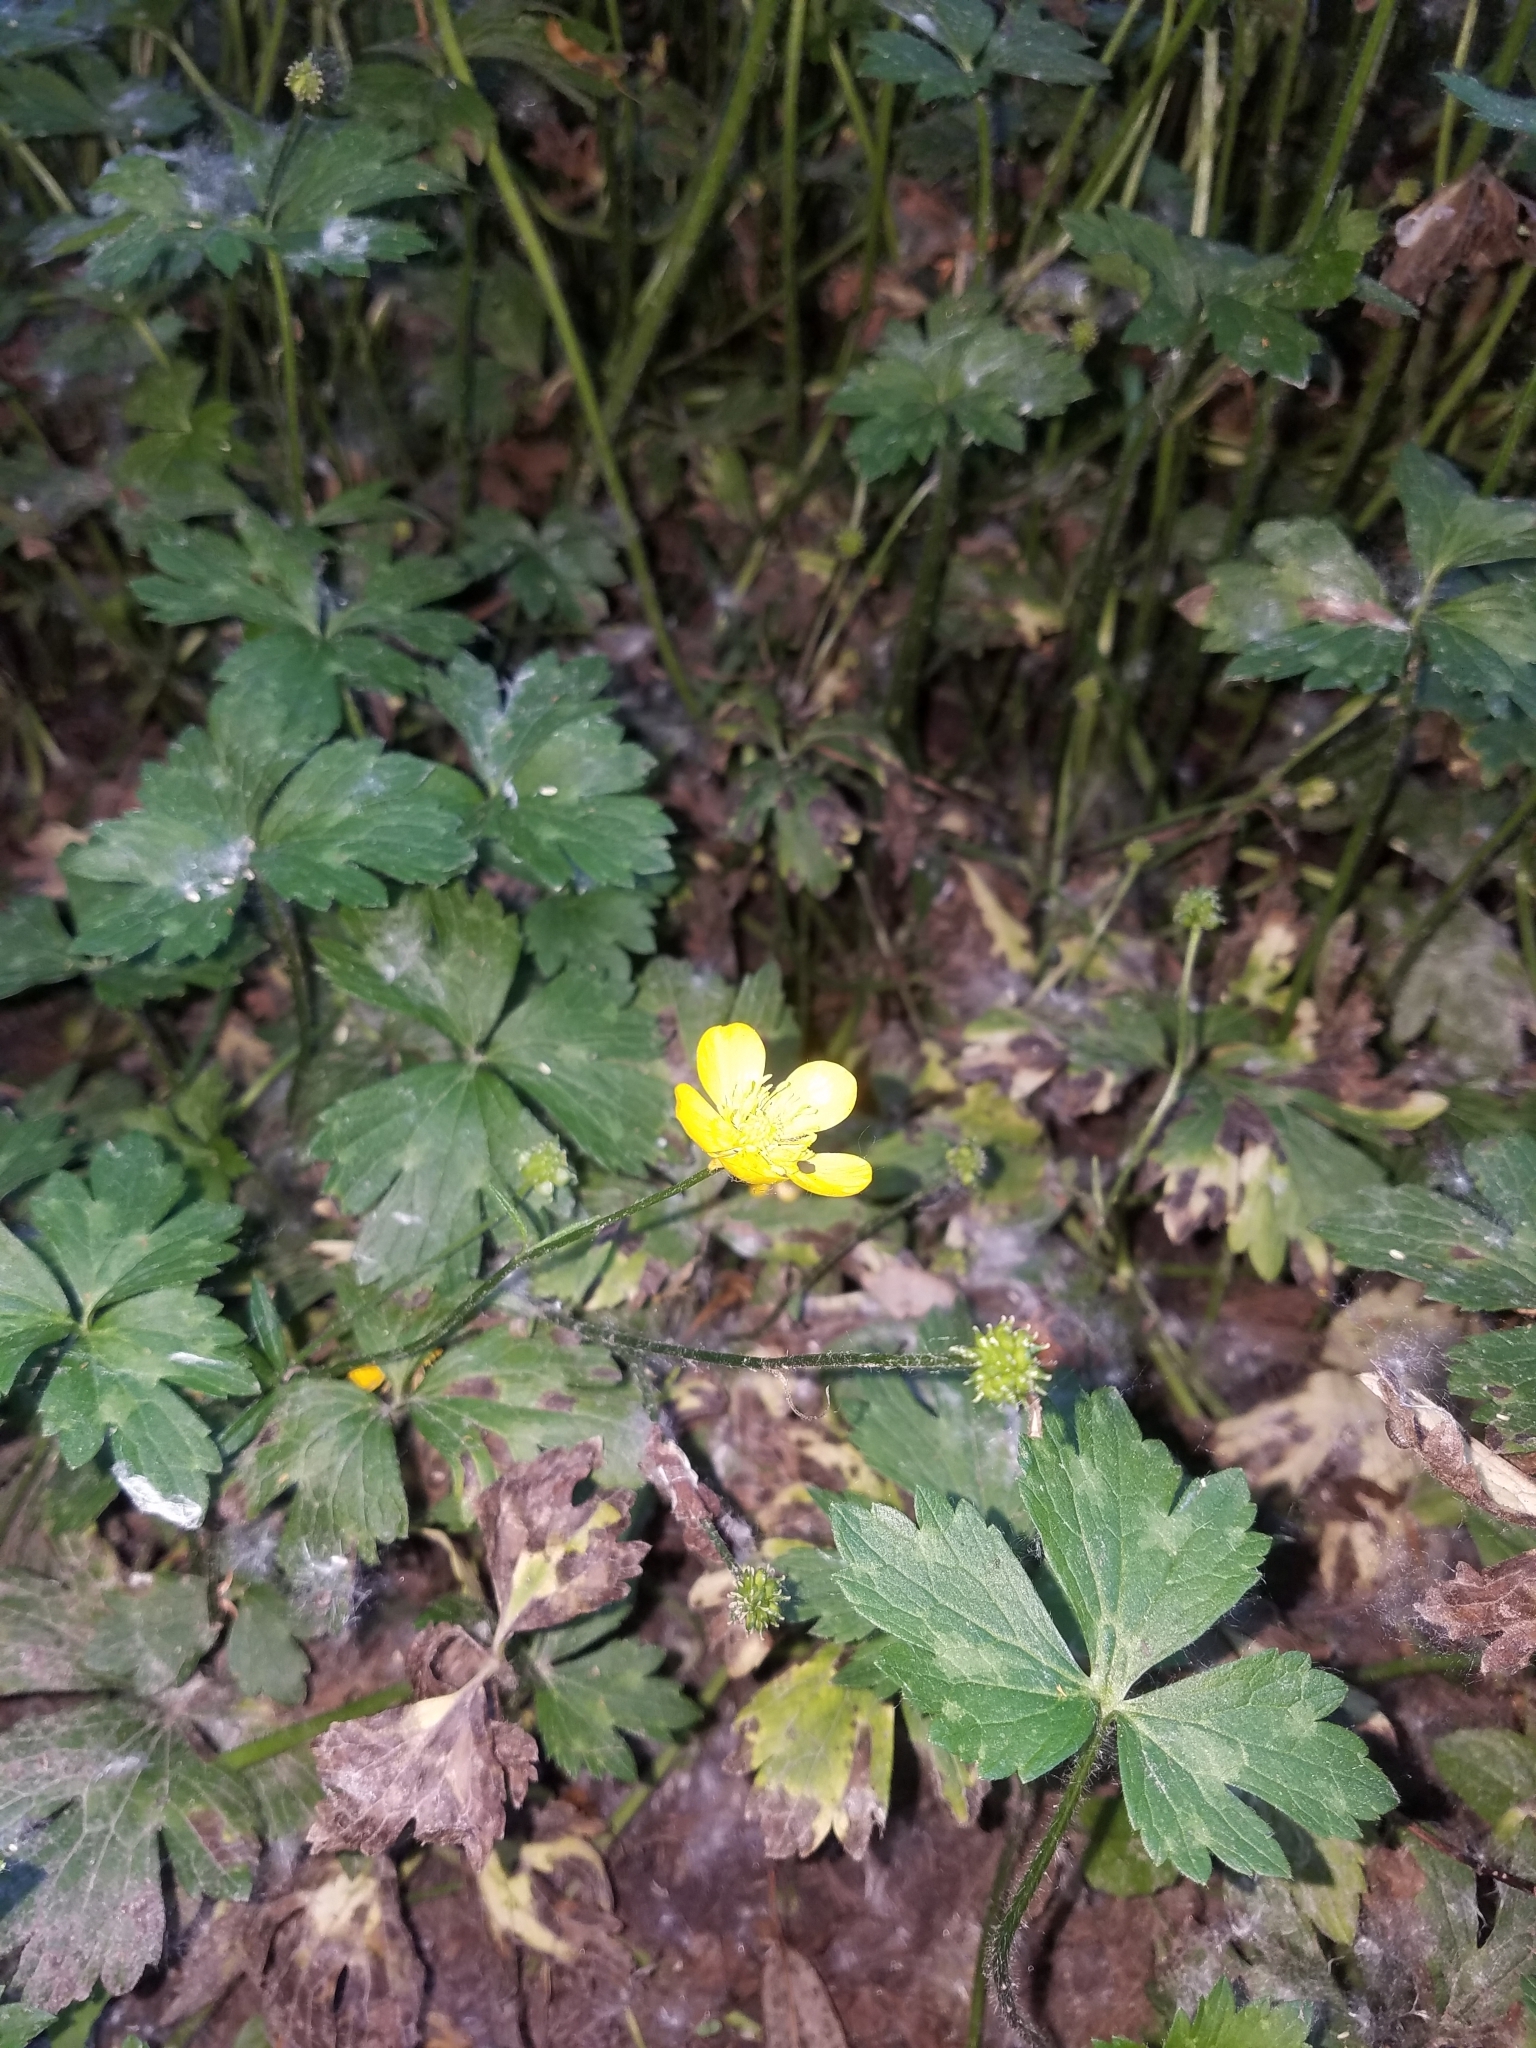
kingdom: Plantae
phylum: Tracheophyta
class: Magnoliopsida
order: Ranunculales
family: Ranunculaceae
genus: Ranunculus
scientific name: Ranunculus repens
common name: Creeping buttercup
